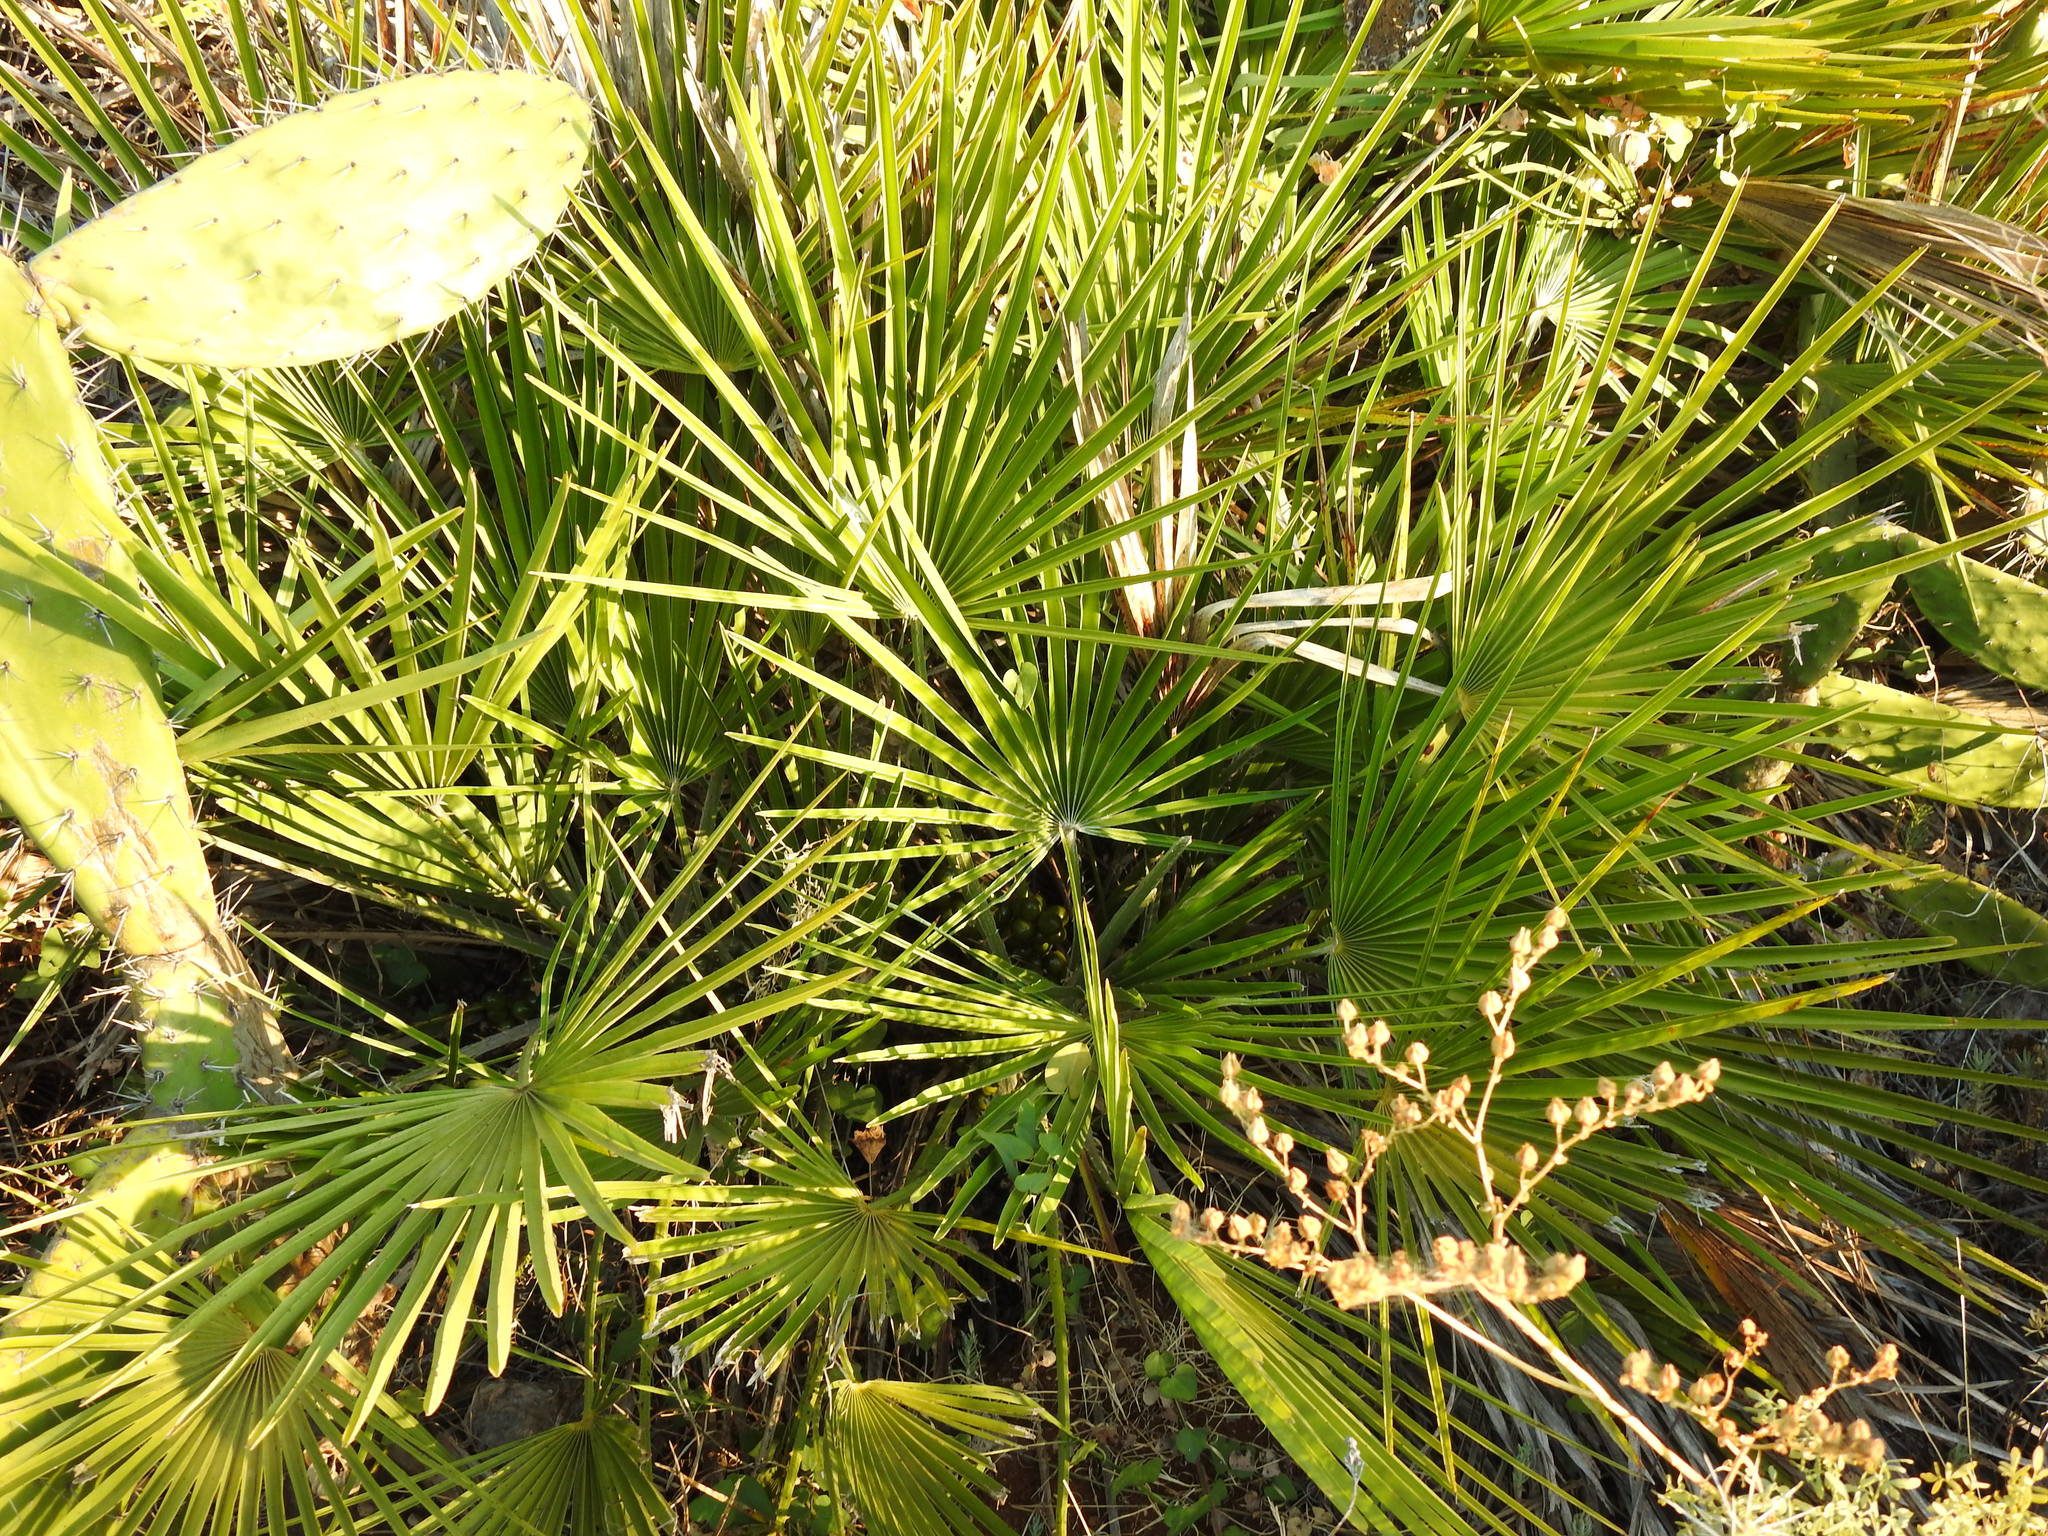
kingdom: Plantae
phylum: Tracheophyta
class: Liliopsida
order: Arecales
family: Arecaceae
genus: Chamaerops
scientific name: Chamaerops humilis
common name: Dwarf fan palm
